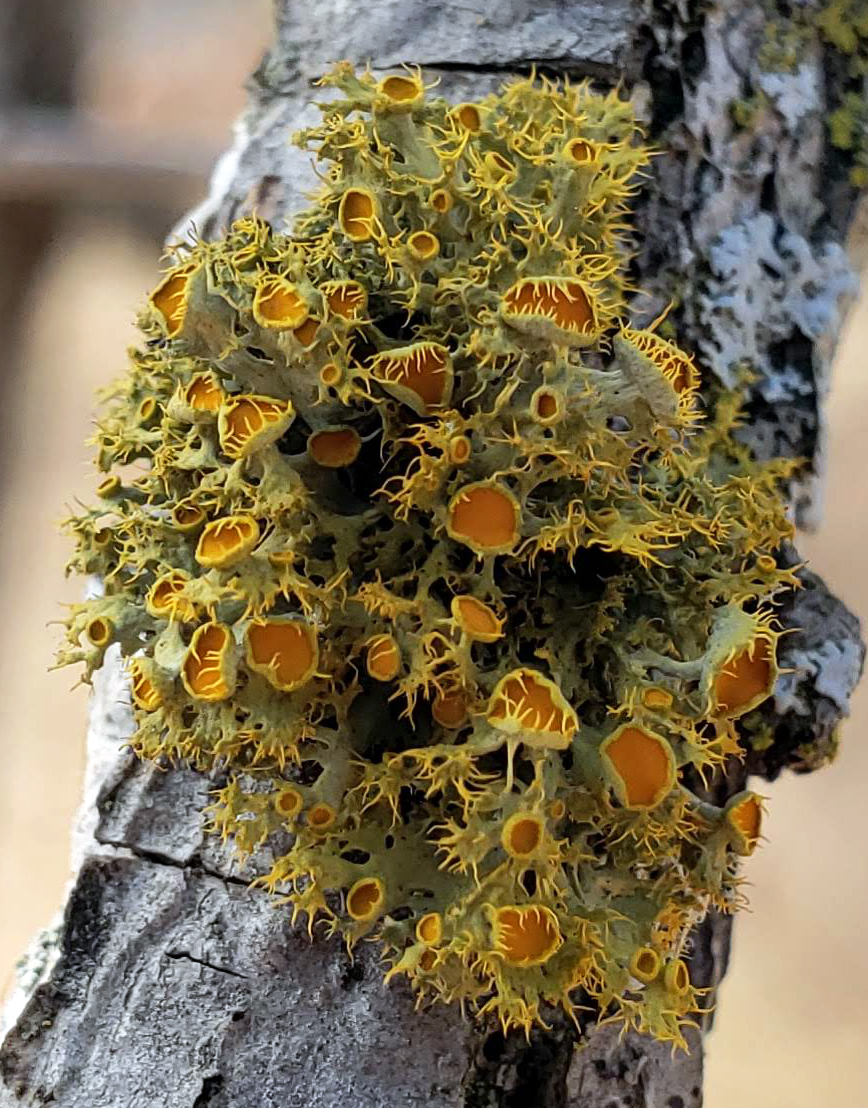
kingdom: Fungi
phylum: Ascomycota
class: Lecanoromycetes
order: Teloschistales
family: Teloschistaceae
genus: Niorma
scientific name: Niorma chrysophthalma
